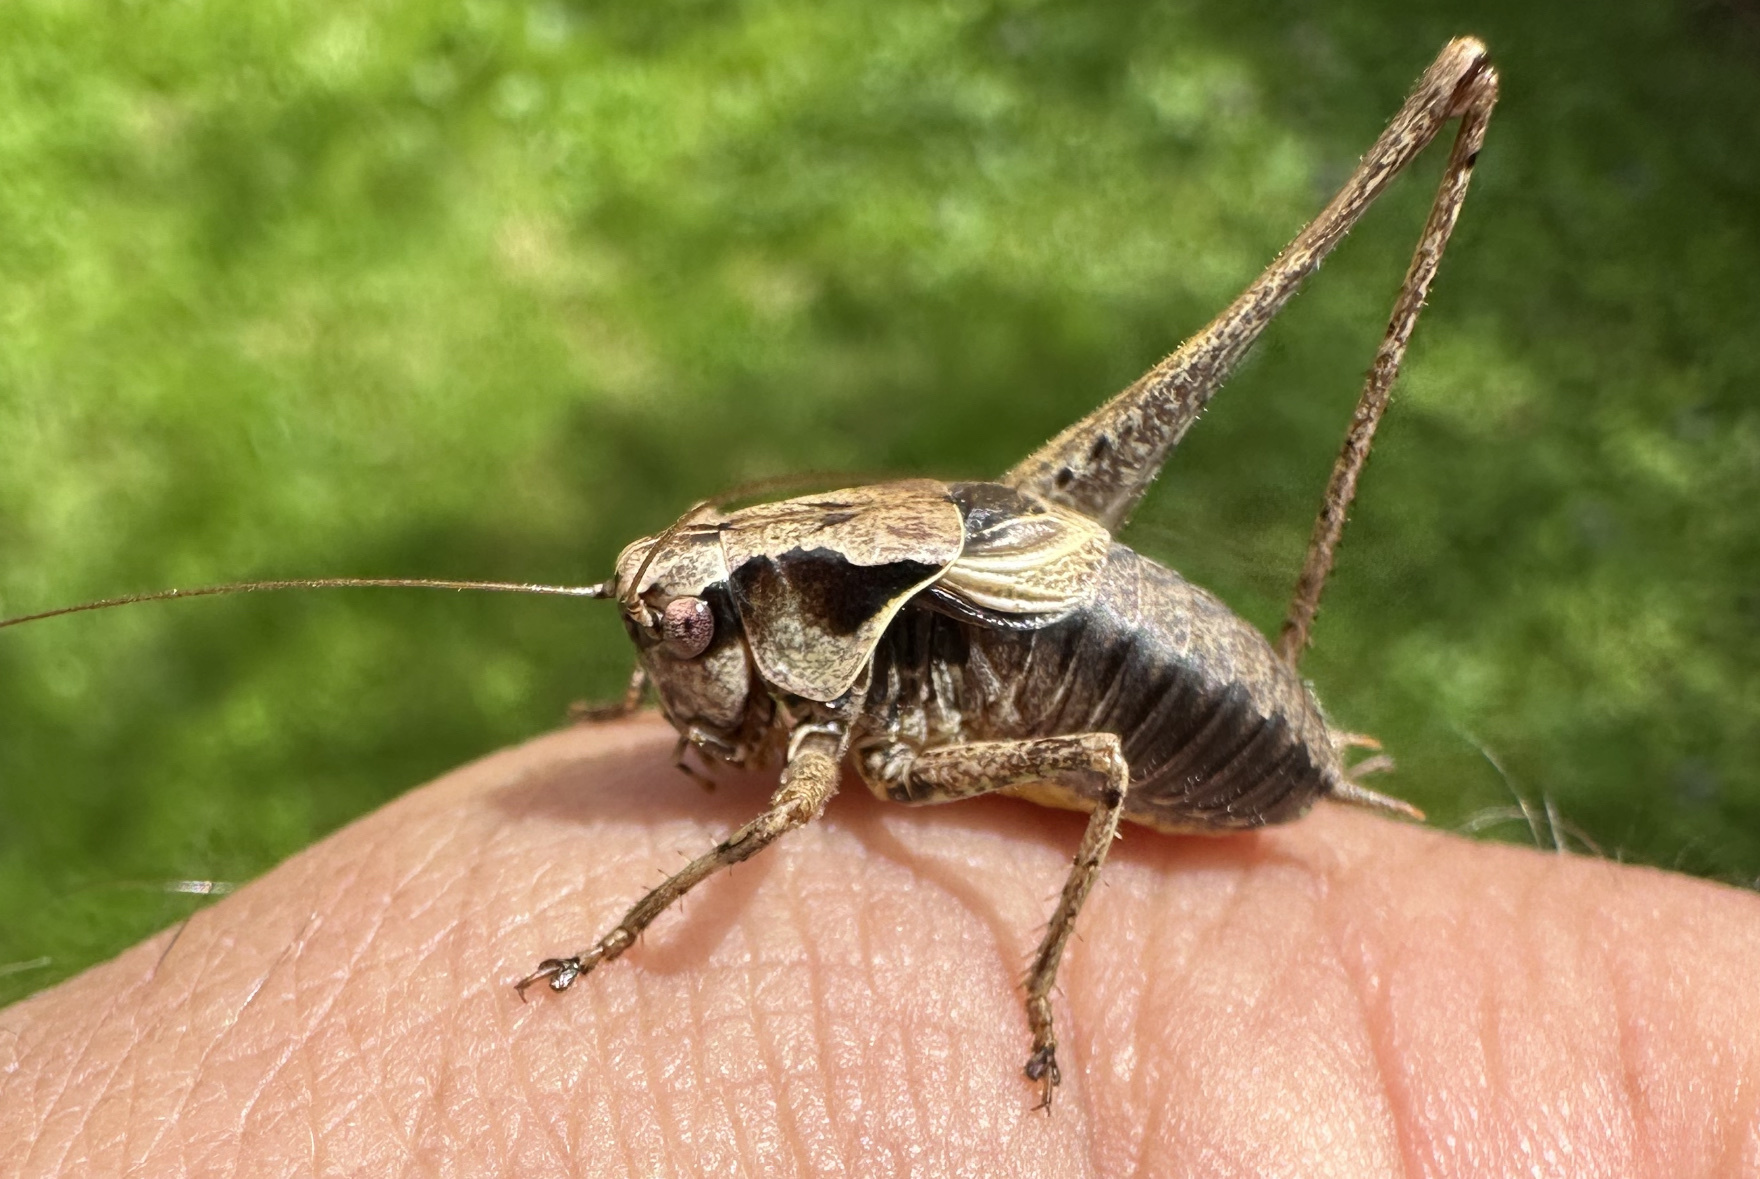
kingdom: Animalia
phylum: Arthropoda
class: Insecta
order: Orthoptera
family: Tettigoniidae
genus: Pholidoptera
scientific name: Pholidoptera griseoaptera
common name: Dark bush-cricket
